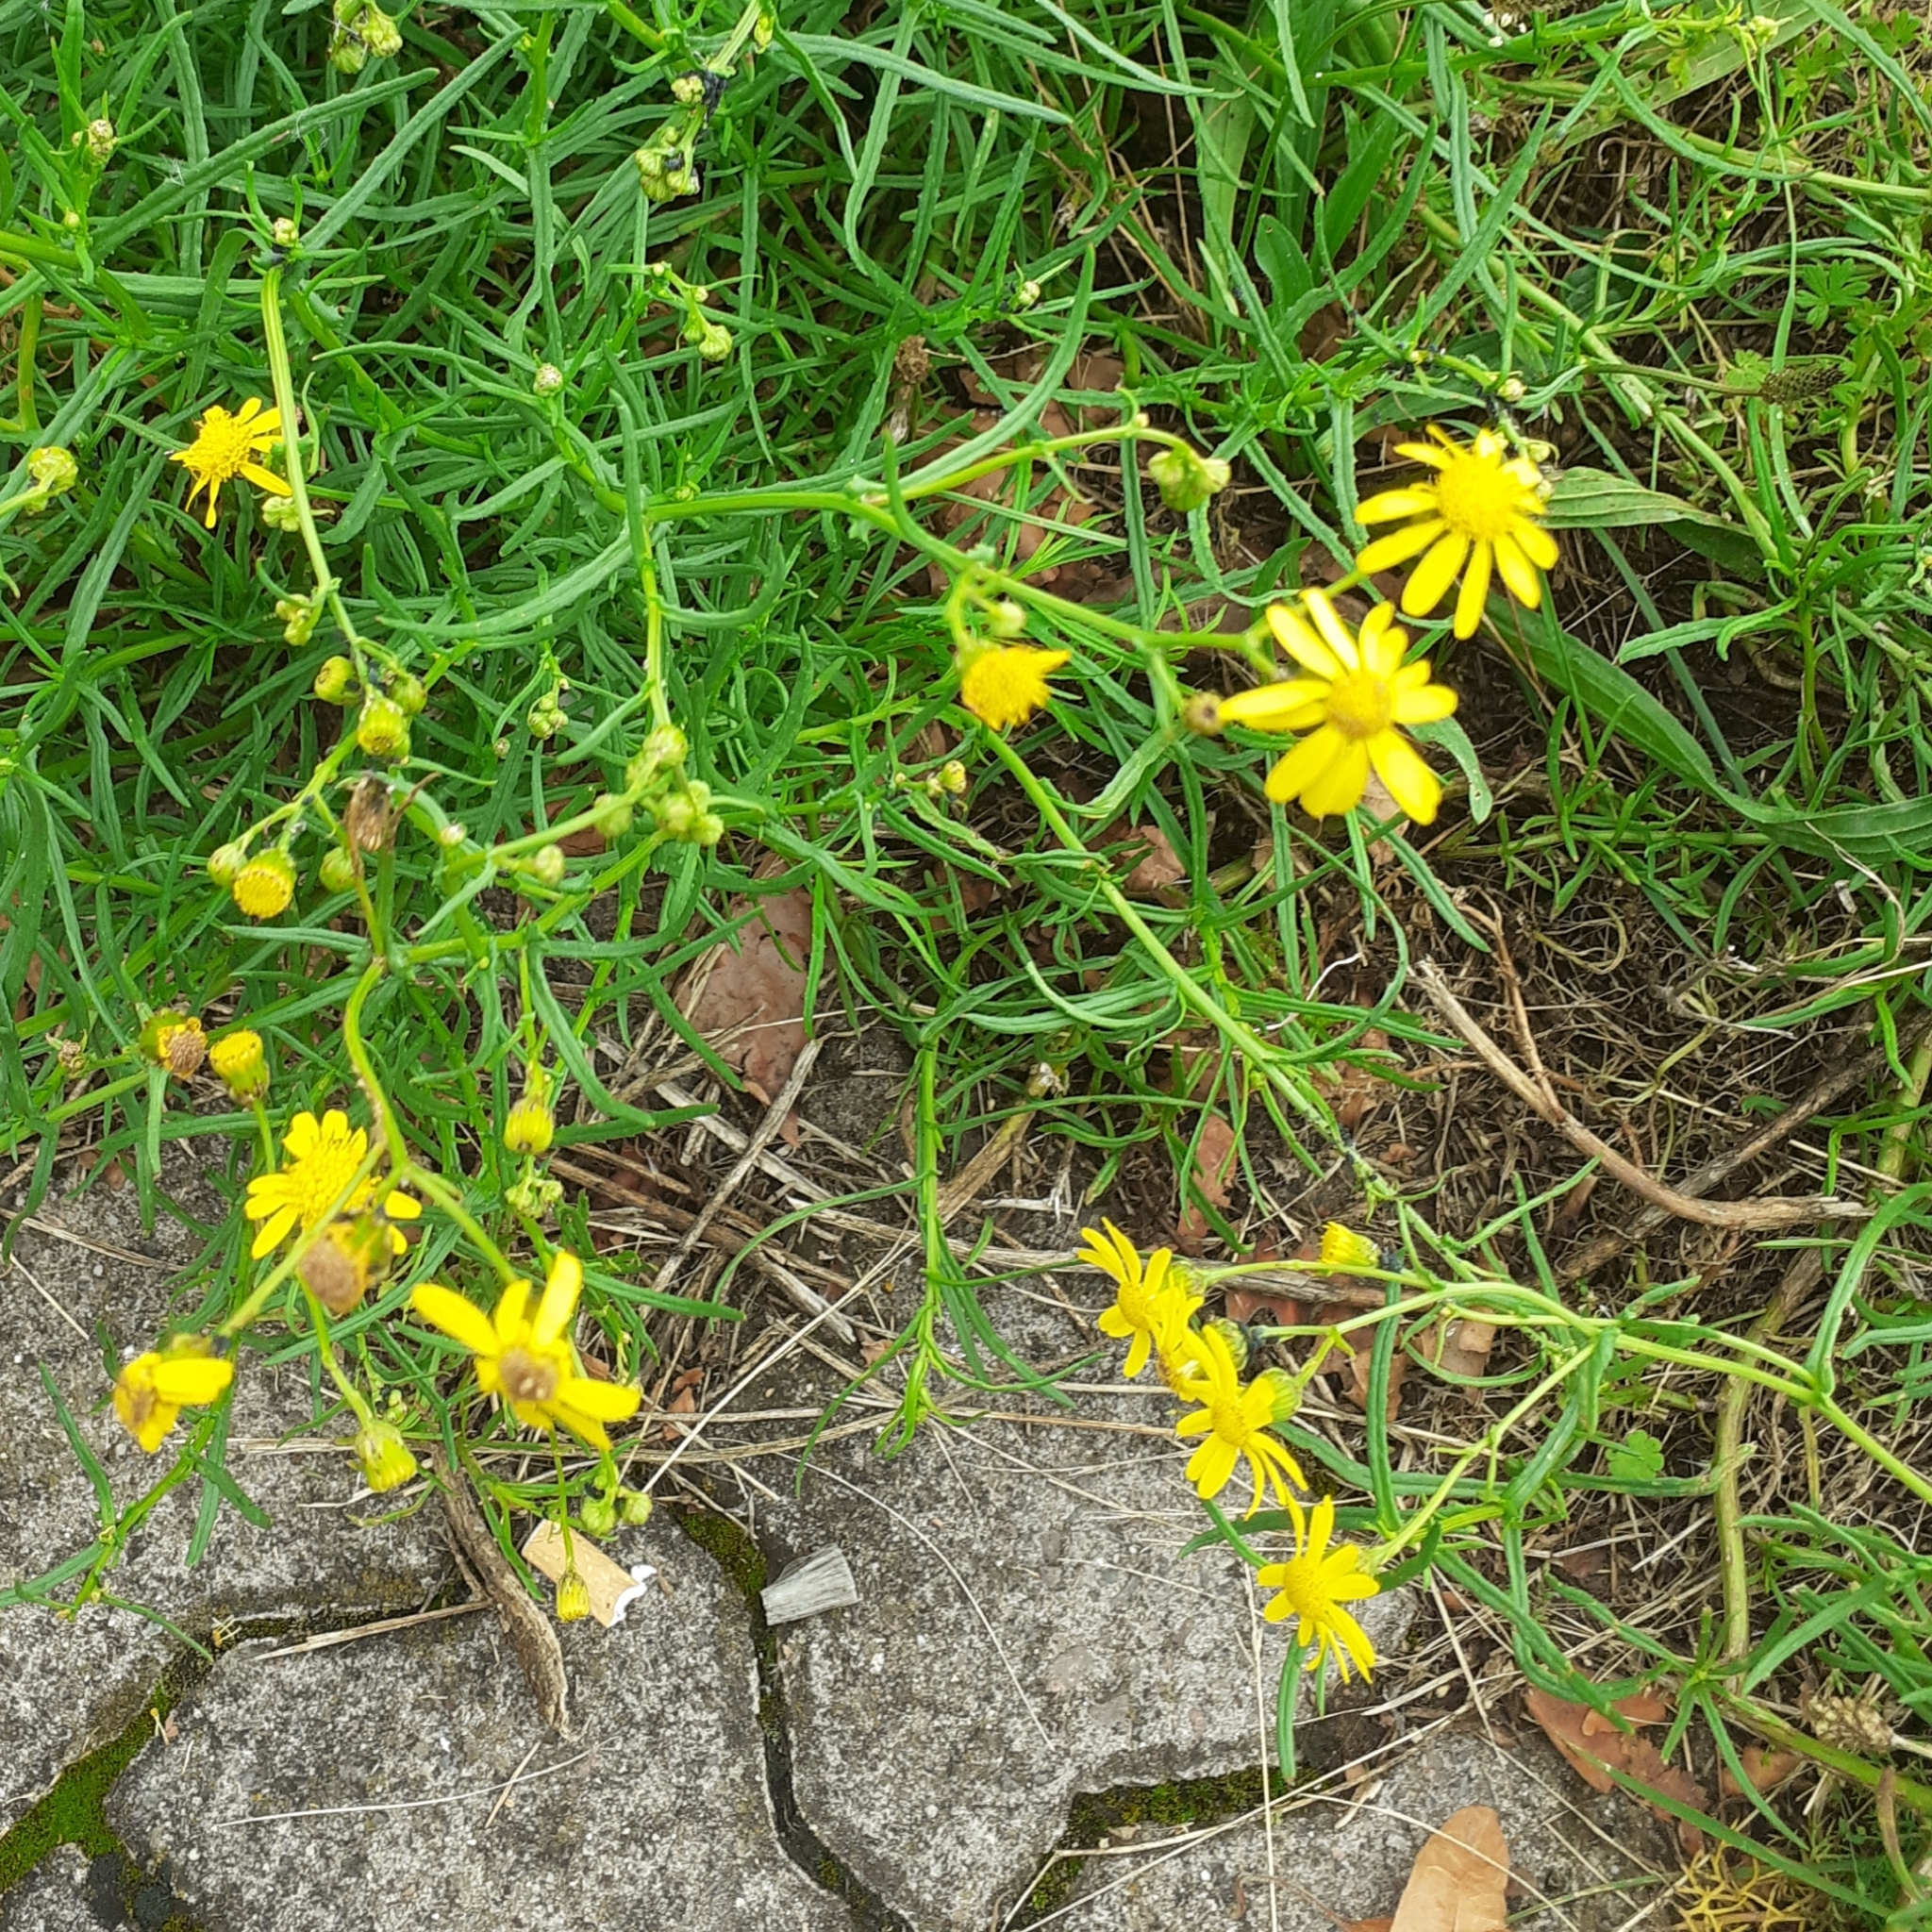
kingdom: Plantae
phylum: Tracheophyta
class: Magnoliopsida
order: Asterales
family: Asteraceae
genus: Senecio
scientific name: Senecio inaequidens
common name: Narrow-leaved ragwort
